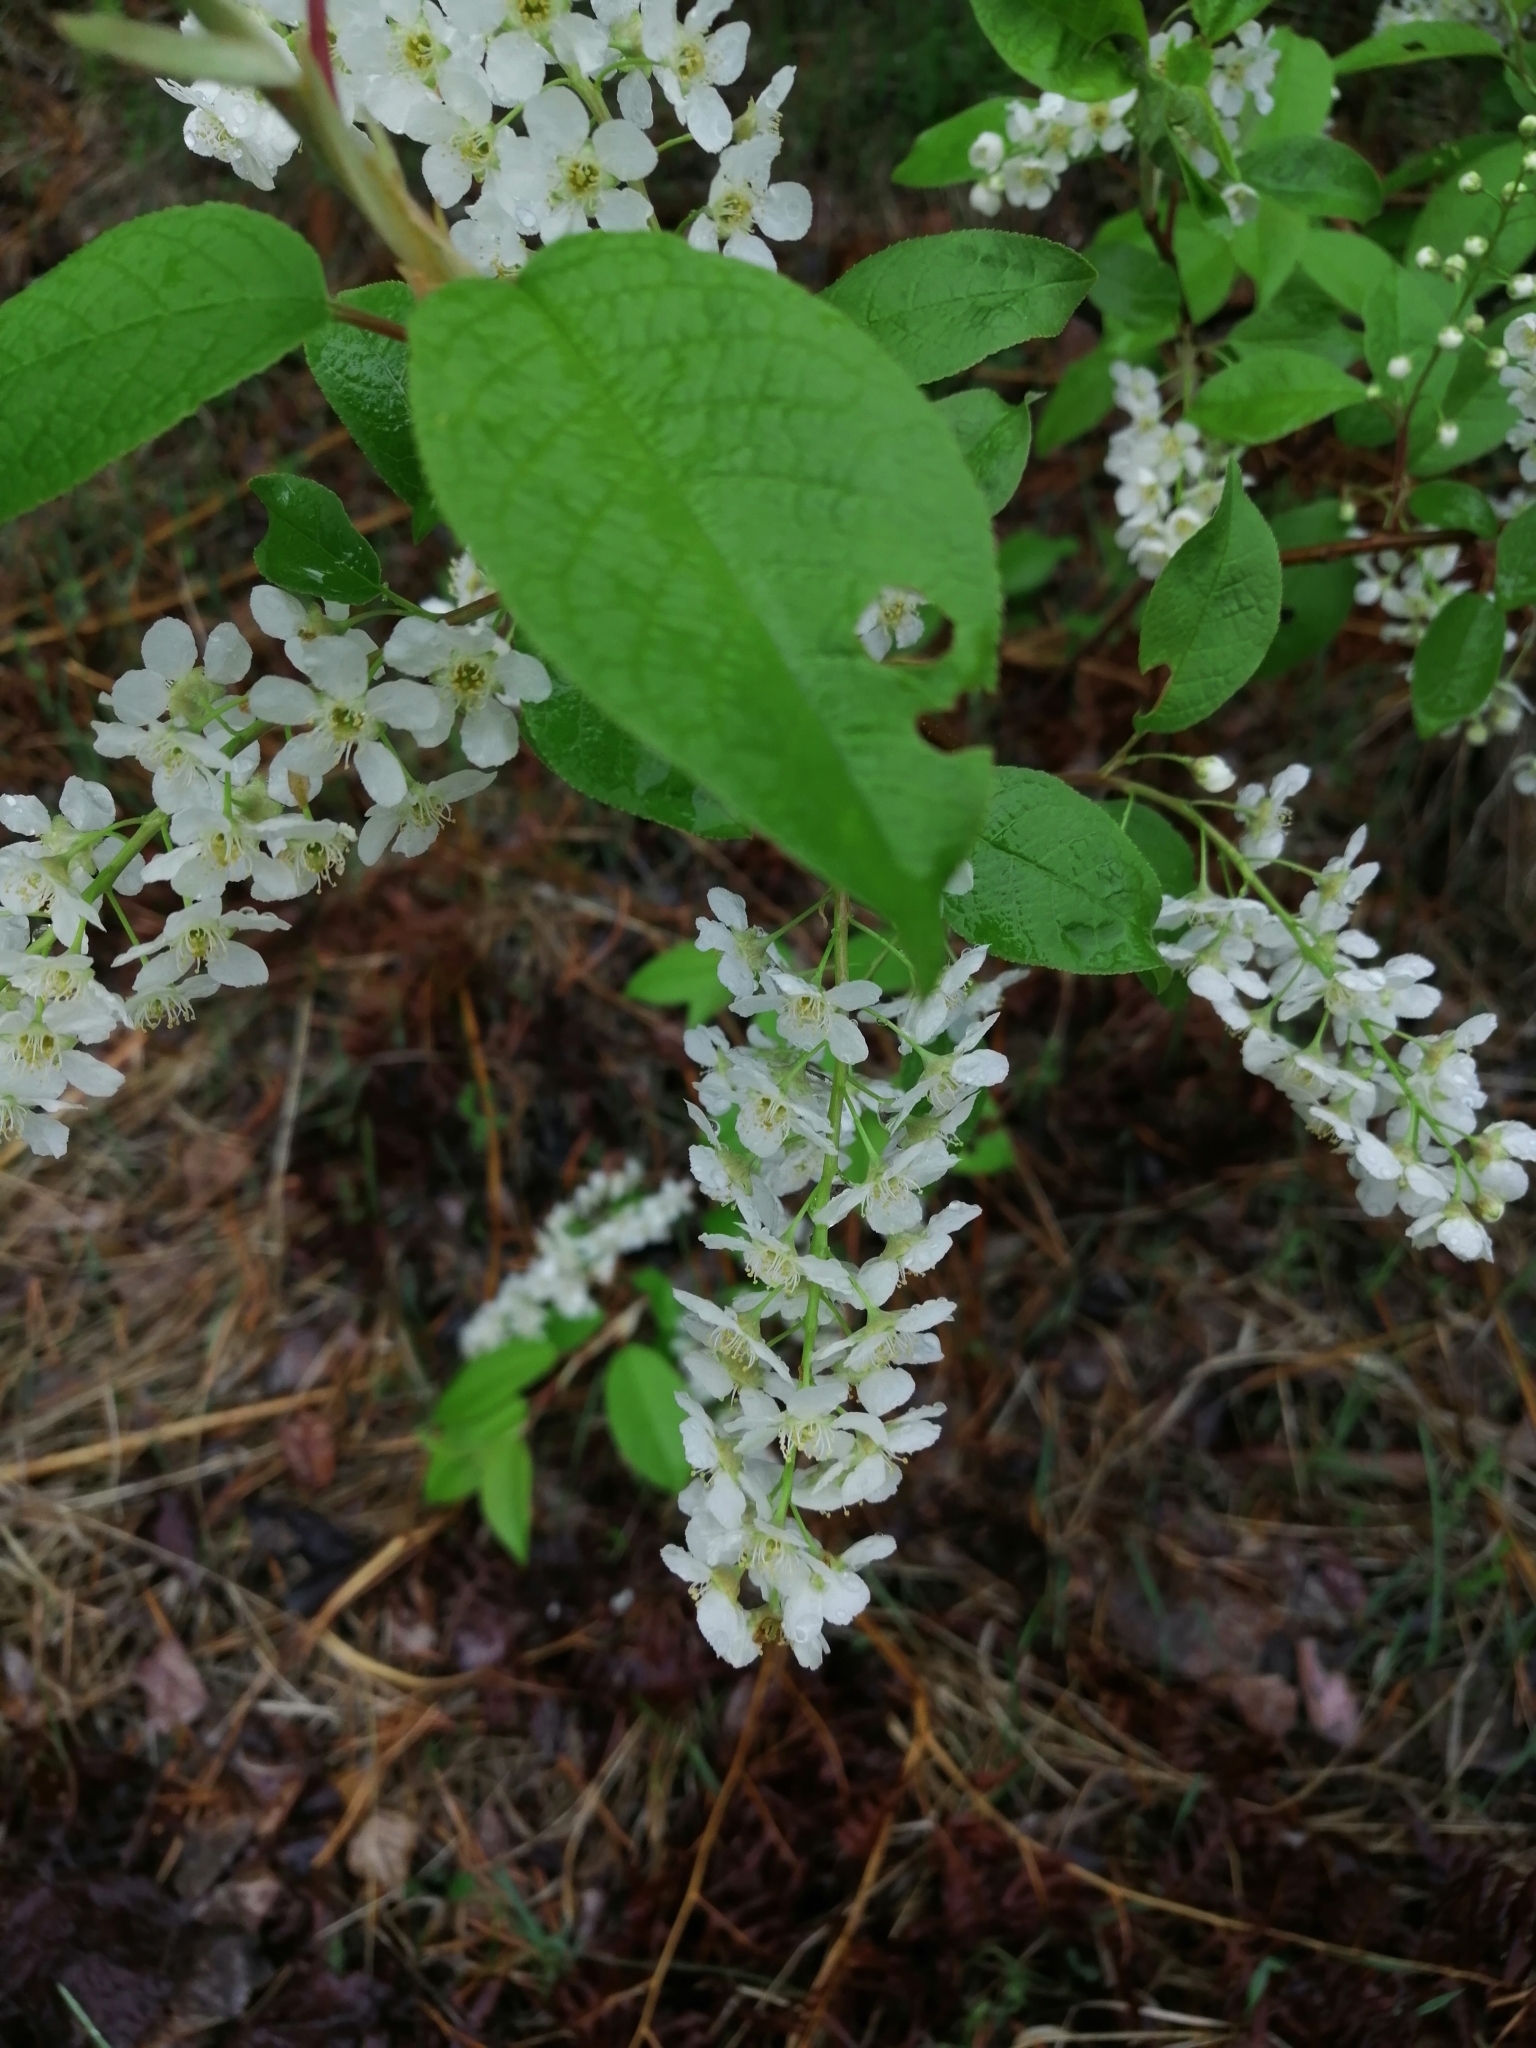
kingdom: Plantae
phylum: Tracheophyta
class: Magnoliopsida
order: Rosales
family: Rosaceae
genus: Prunus
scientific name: Prunus padus
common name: Bird cherry
